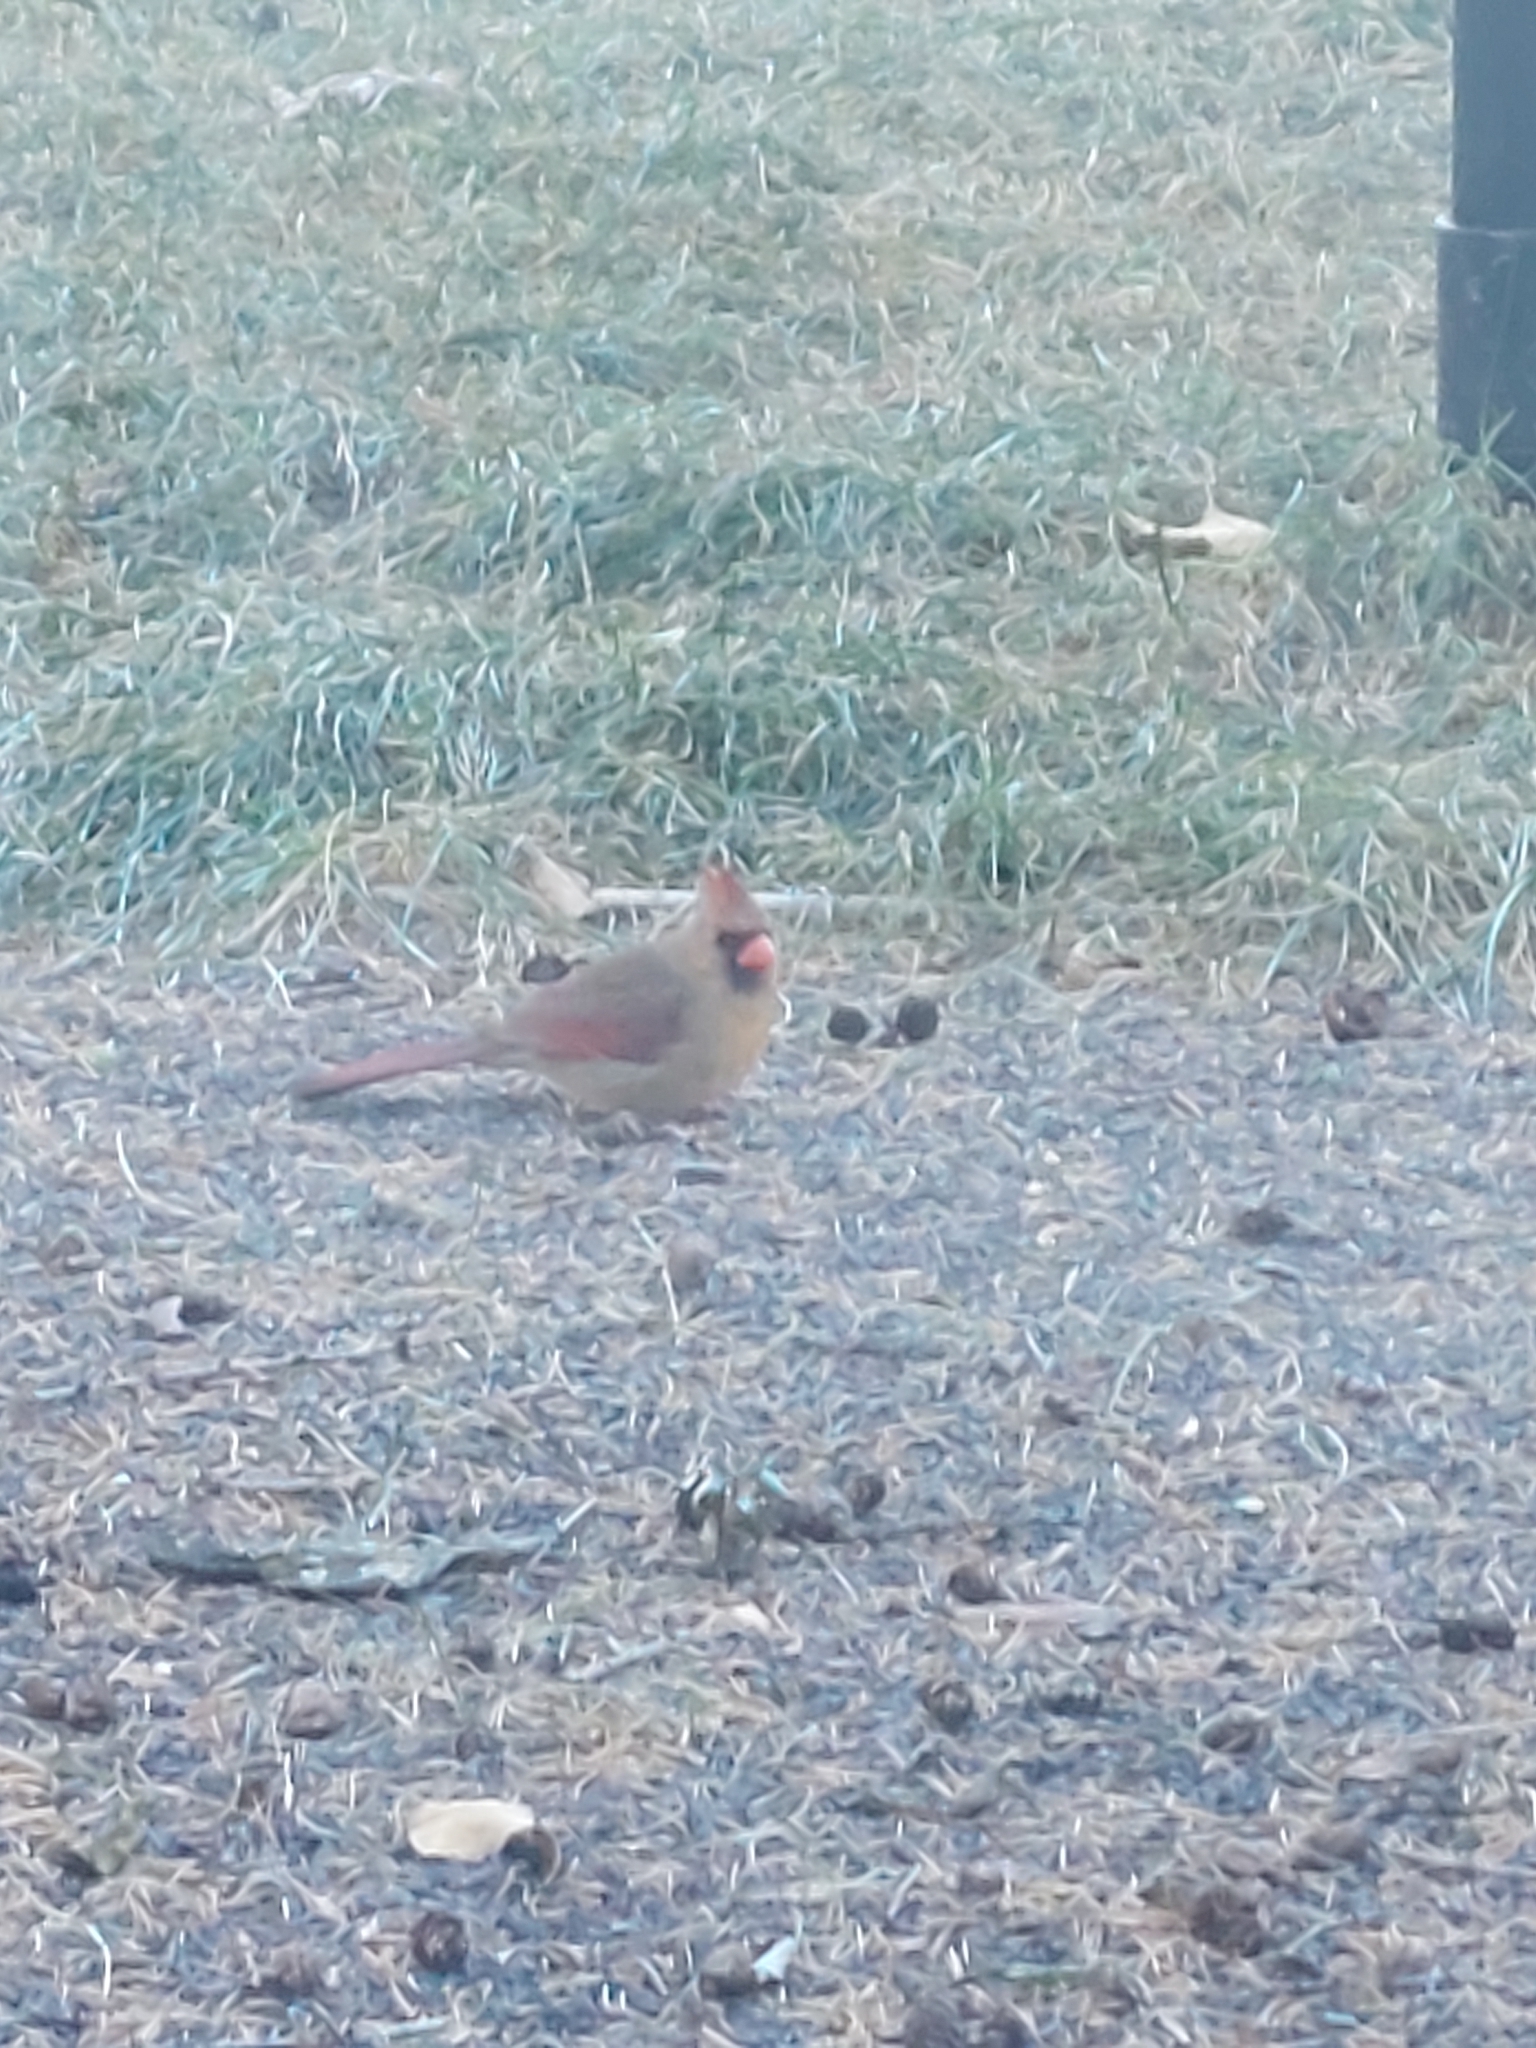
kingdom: Animalia
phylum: Chordata
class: Aves
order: Passeriformes
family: Cardinalidae
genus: Cardinalis
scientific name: Cardinalis cardinalis
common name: Northern cardinal
